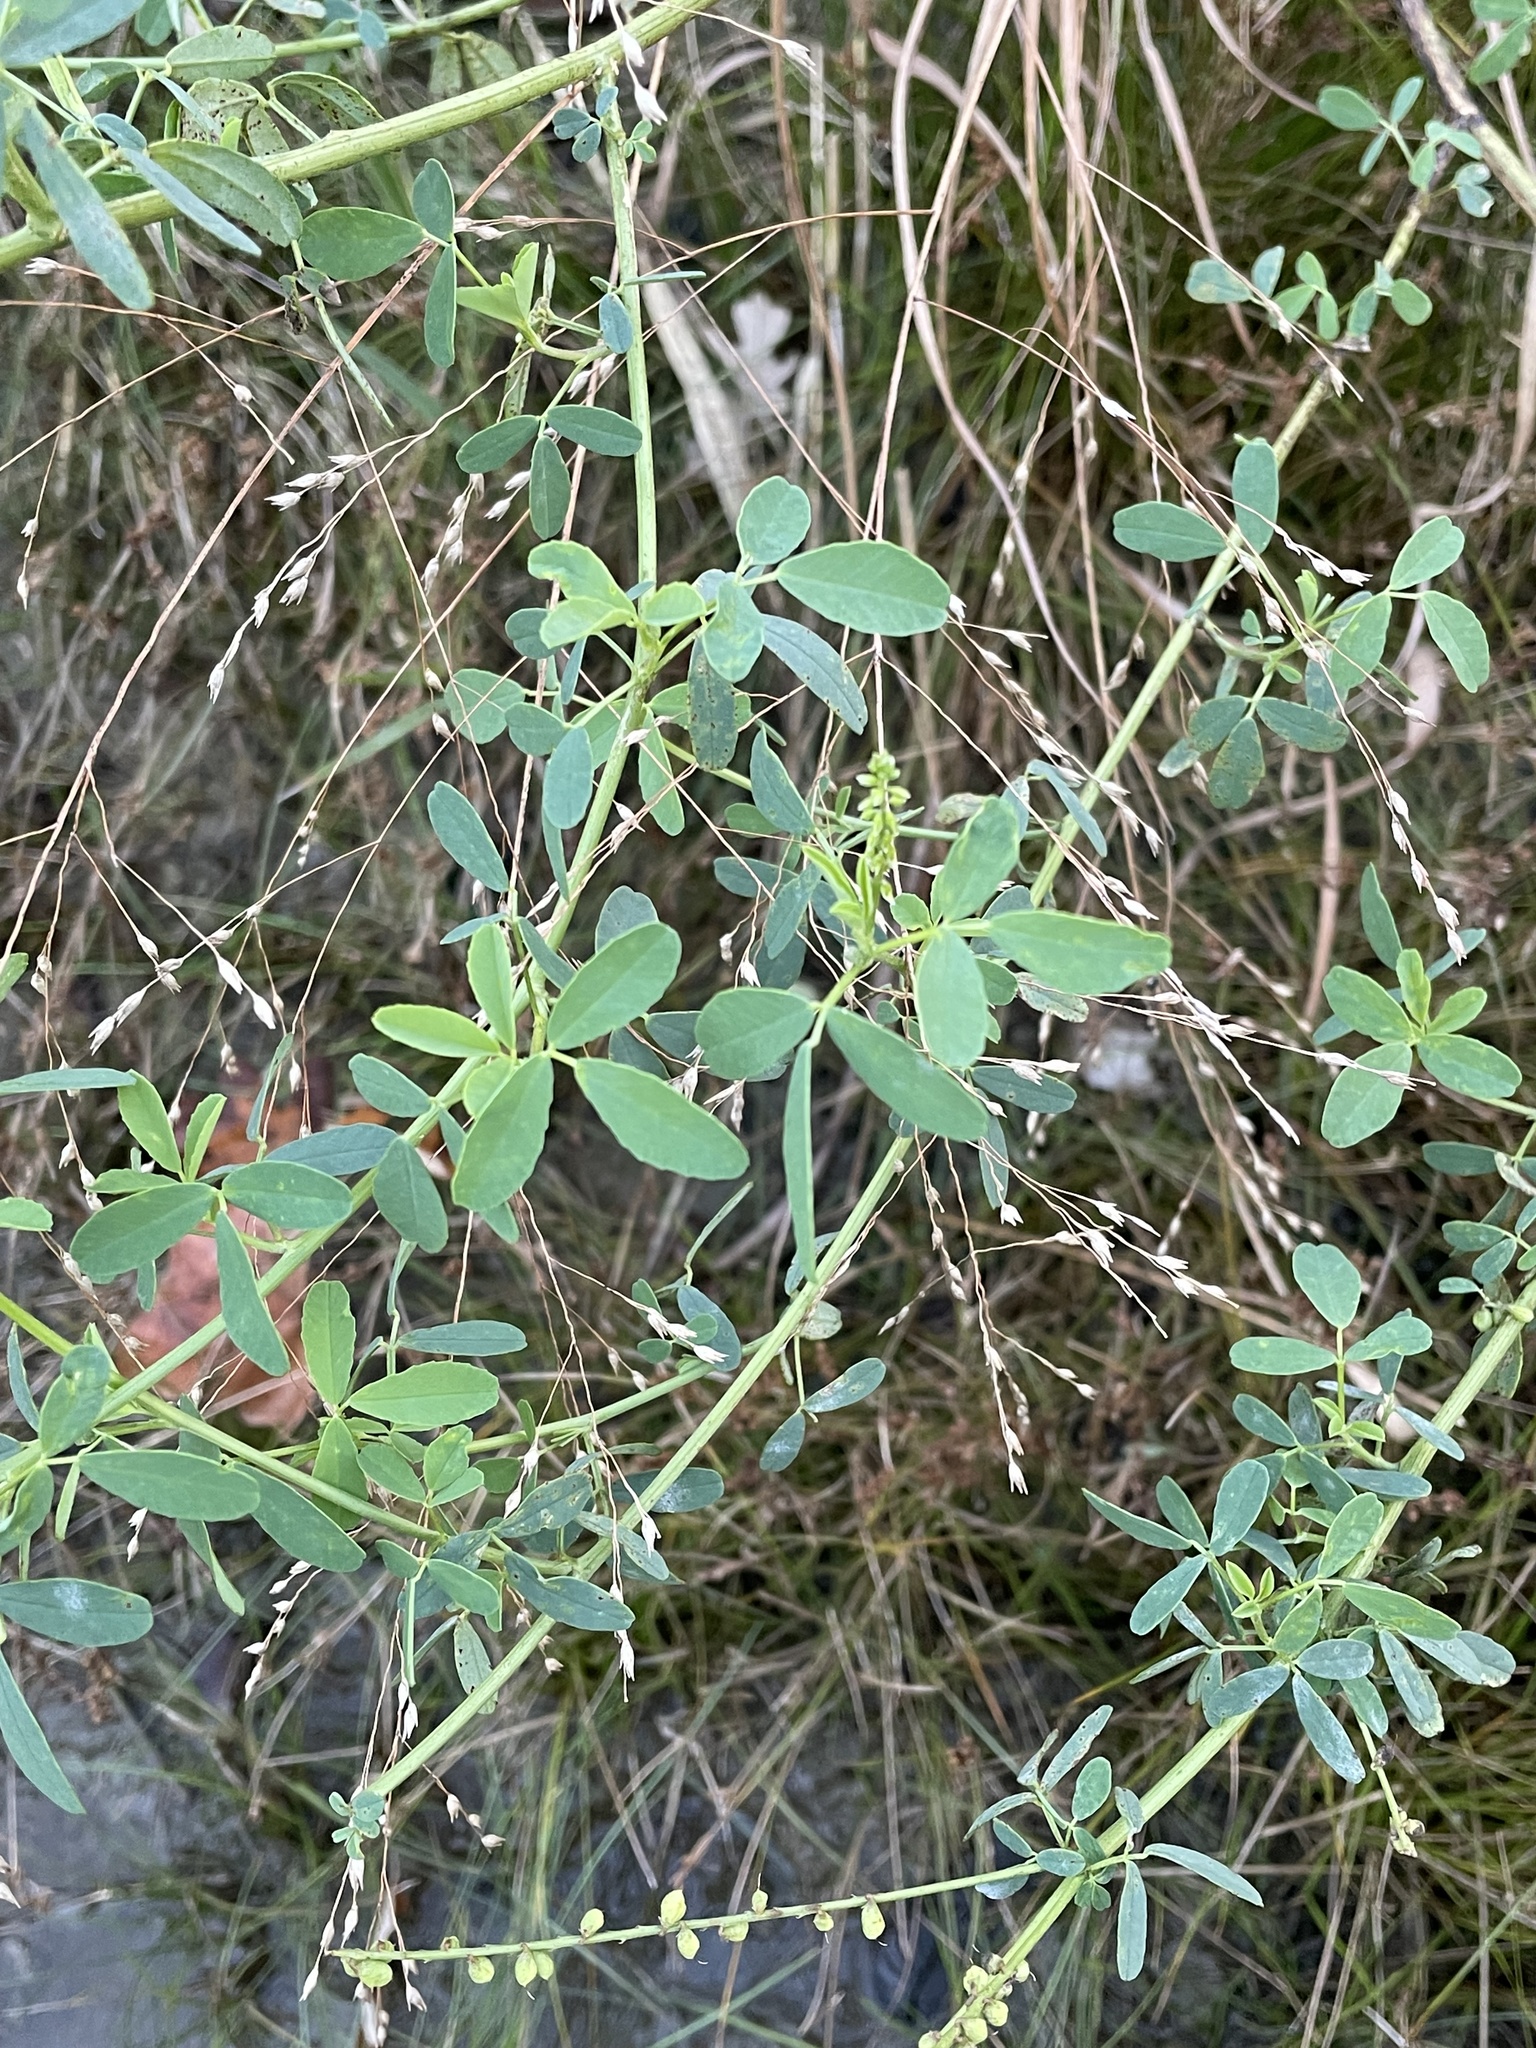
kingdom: Plantae
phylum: Tracheophyta
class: Magnoliopsida
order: Fabales
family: Fabaceae
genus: Melilotus
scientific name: Melilotus albus
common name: White melilot
